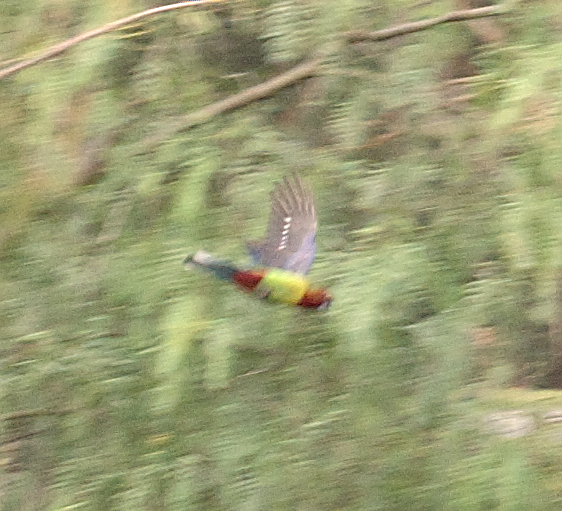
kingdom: Animalia
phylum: Chordata
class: Aves
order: Psittaciformes
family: Psittacidae
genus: Platycercus
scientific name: Platycercus eximius
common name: Eastern rosella
